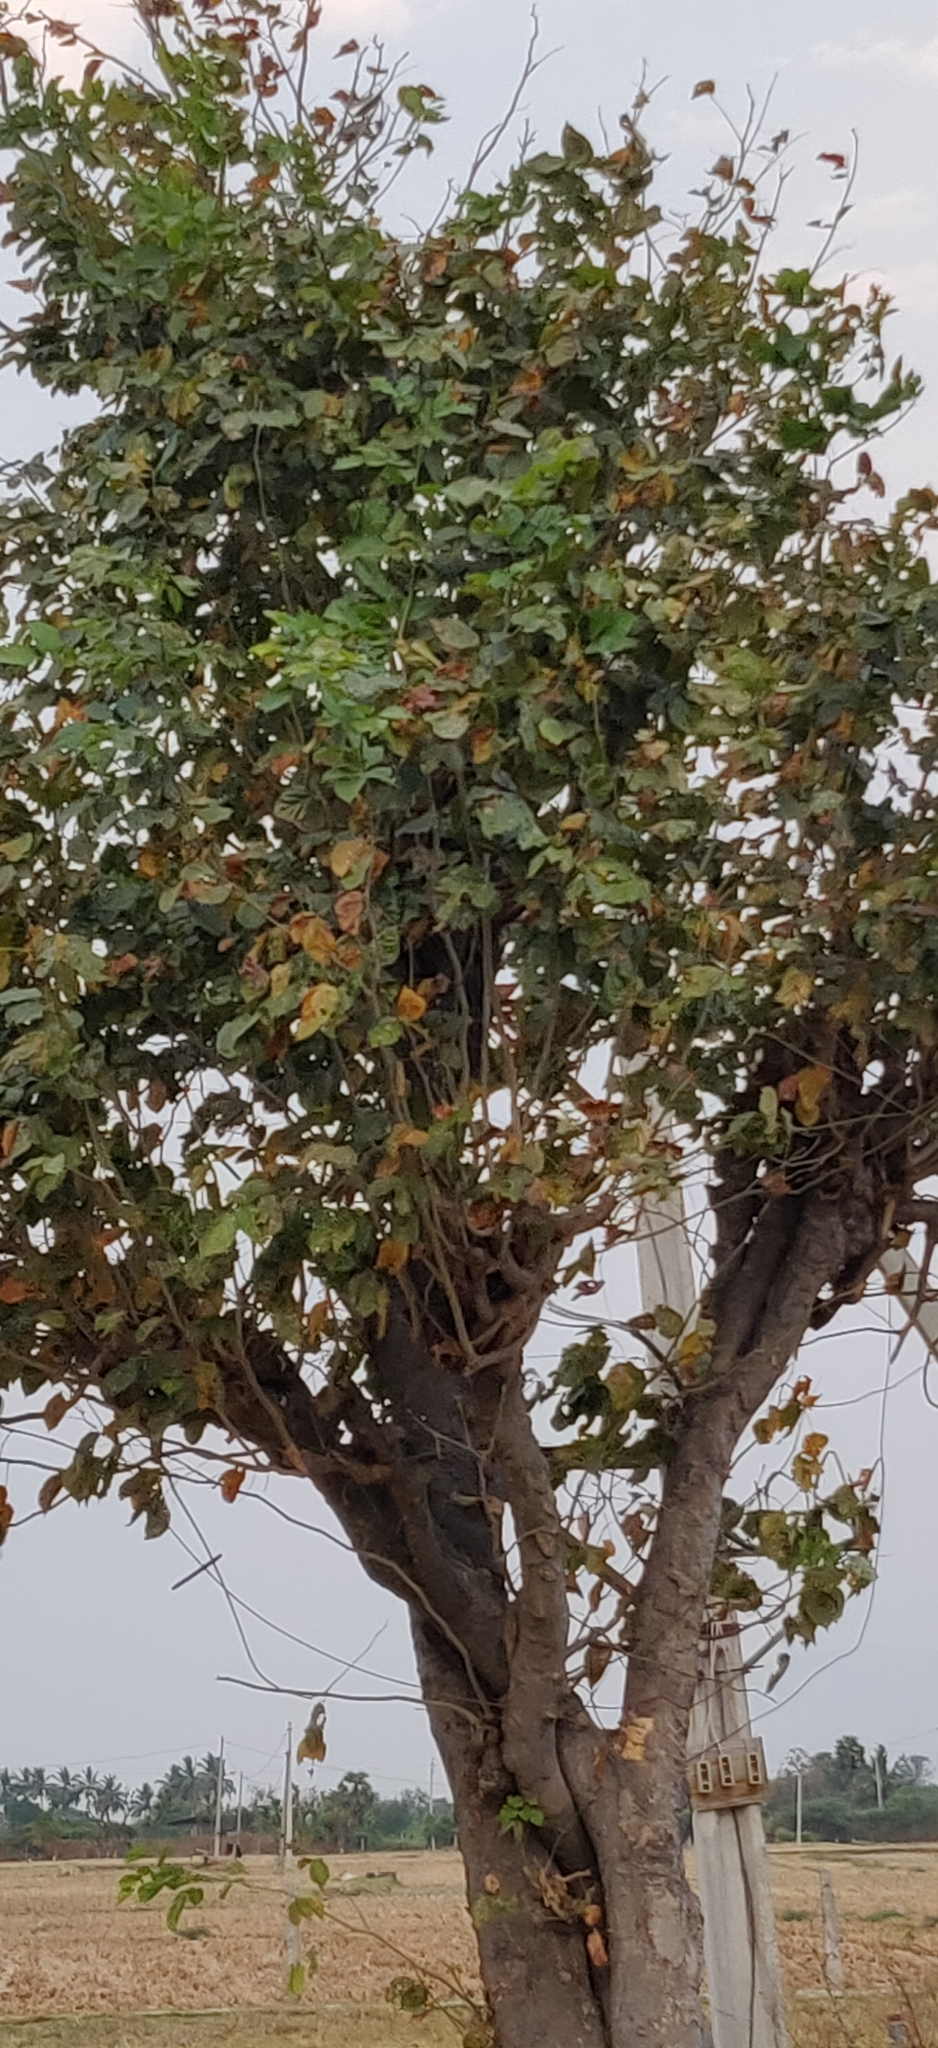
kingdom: Plantae
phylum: Tracheophyta
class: Magnoliopsida
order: Fabales
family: Fabaceae
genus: Pongamia
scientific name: Pongamia pinnata
